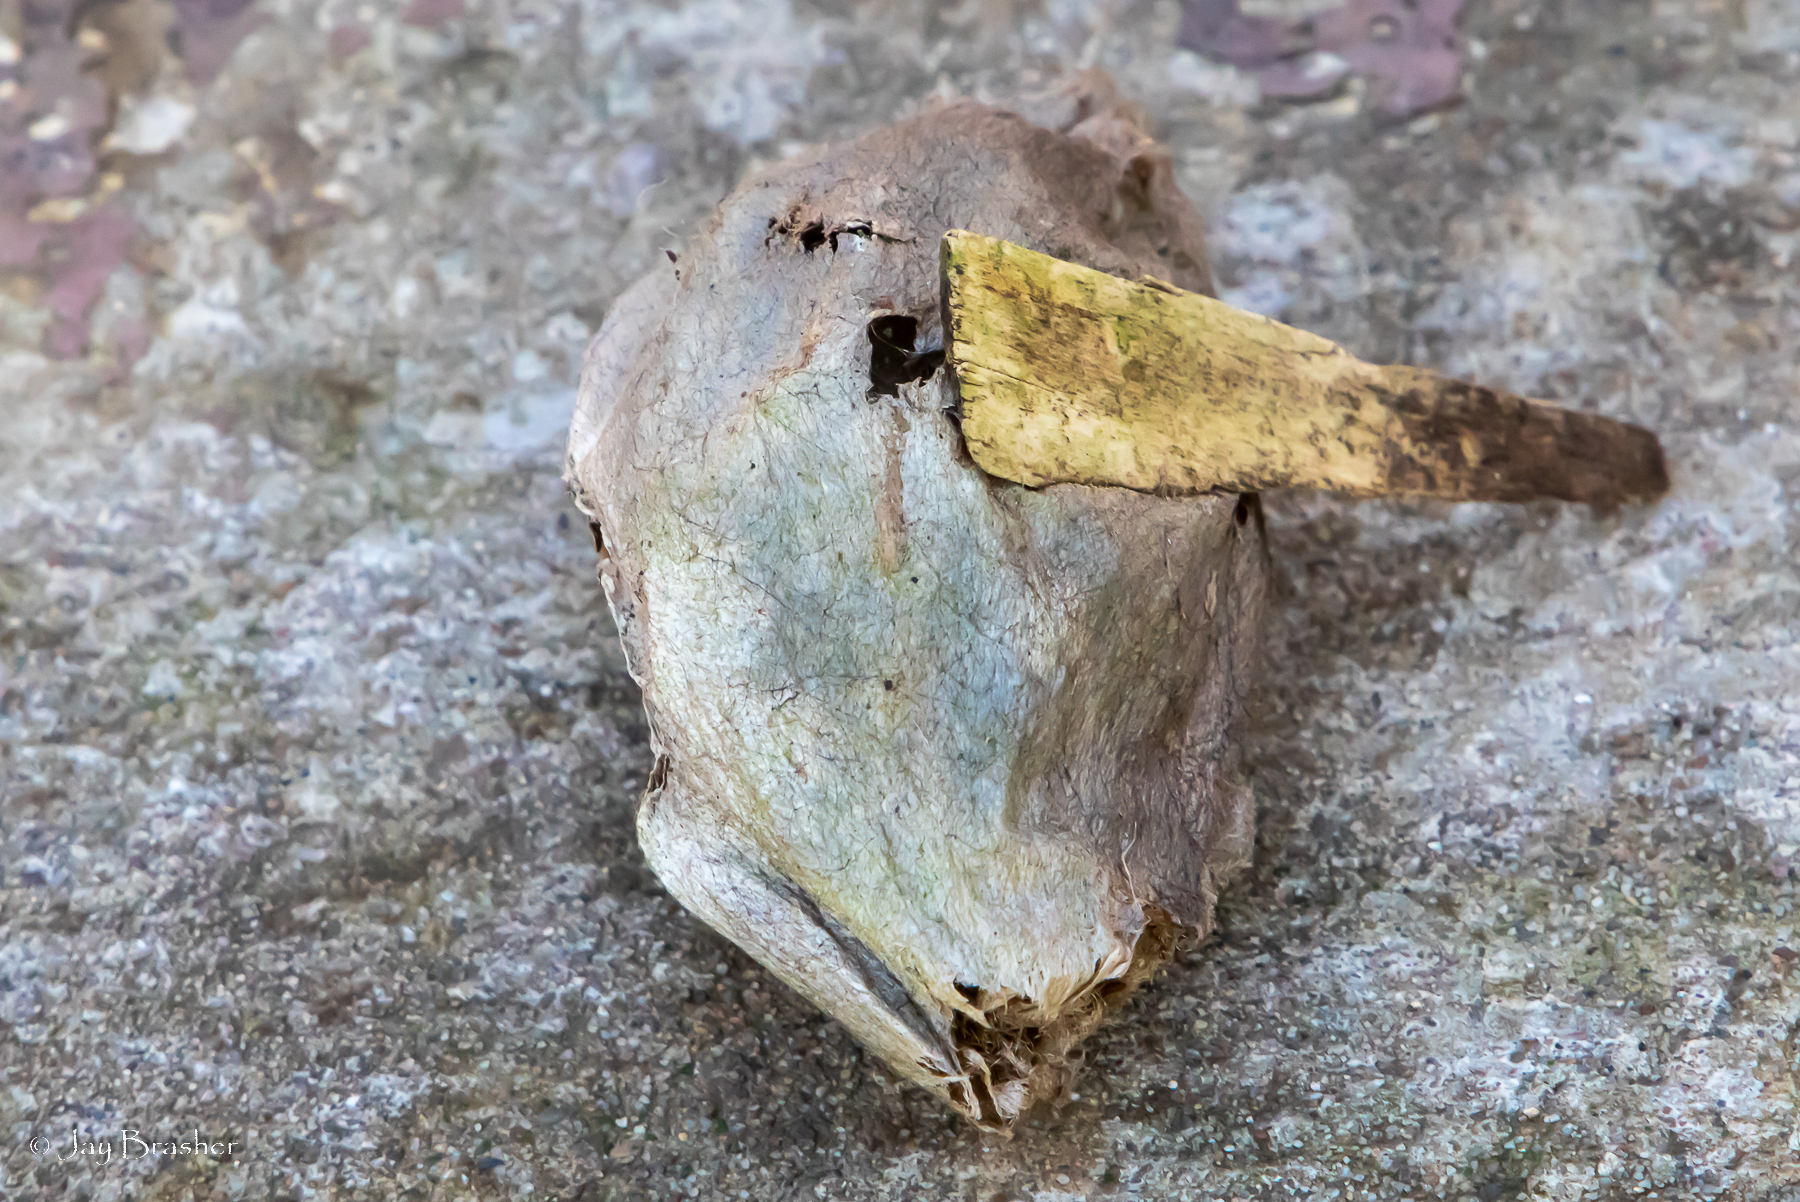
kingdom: Animalia
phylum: Arthropoda
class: Insecta
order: Lepidoptera
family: Saturniidae
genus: Hyalophora
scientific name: Hyalophora cecropia
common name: Cecropia silkmoth
